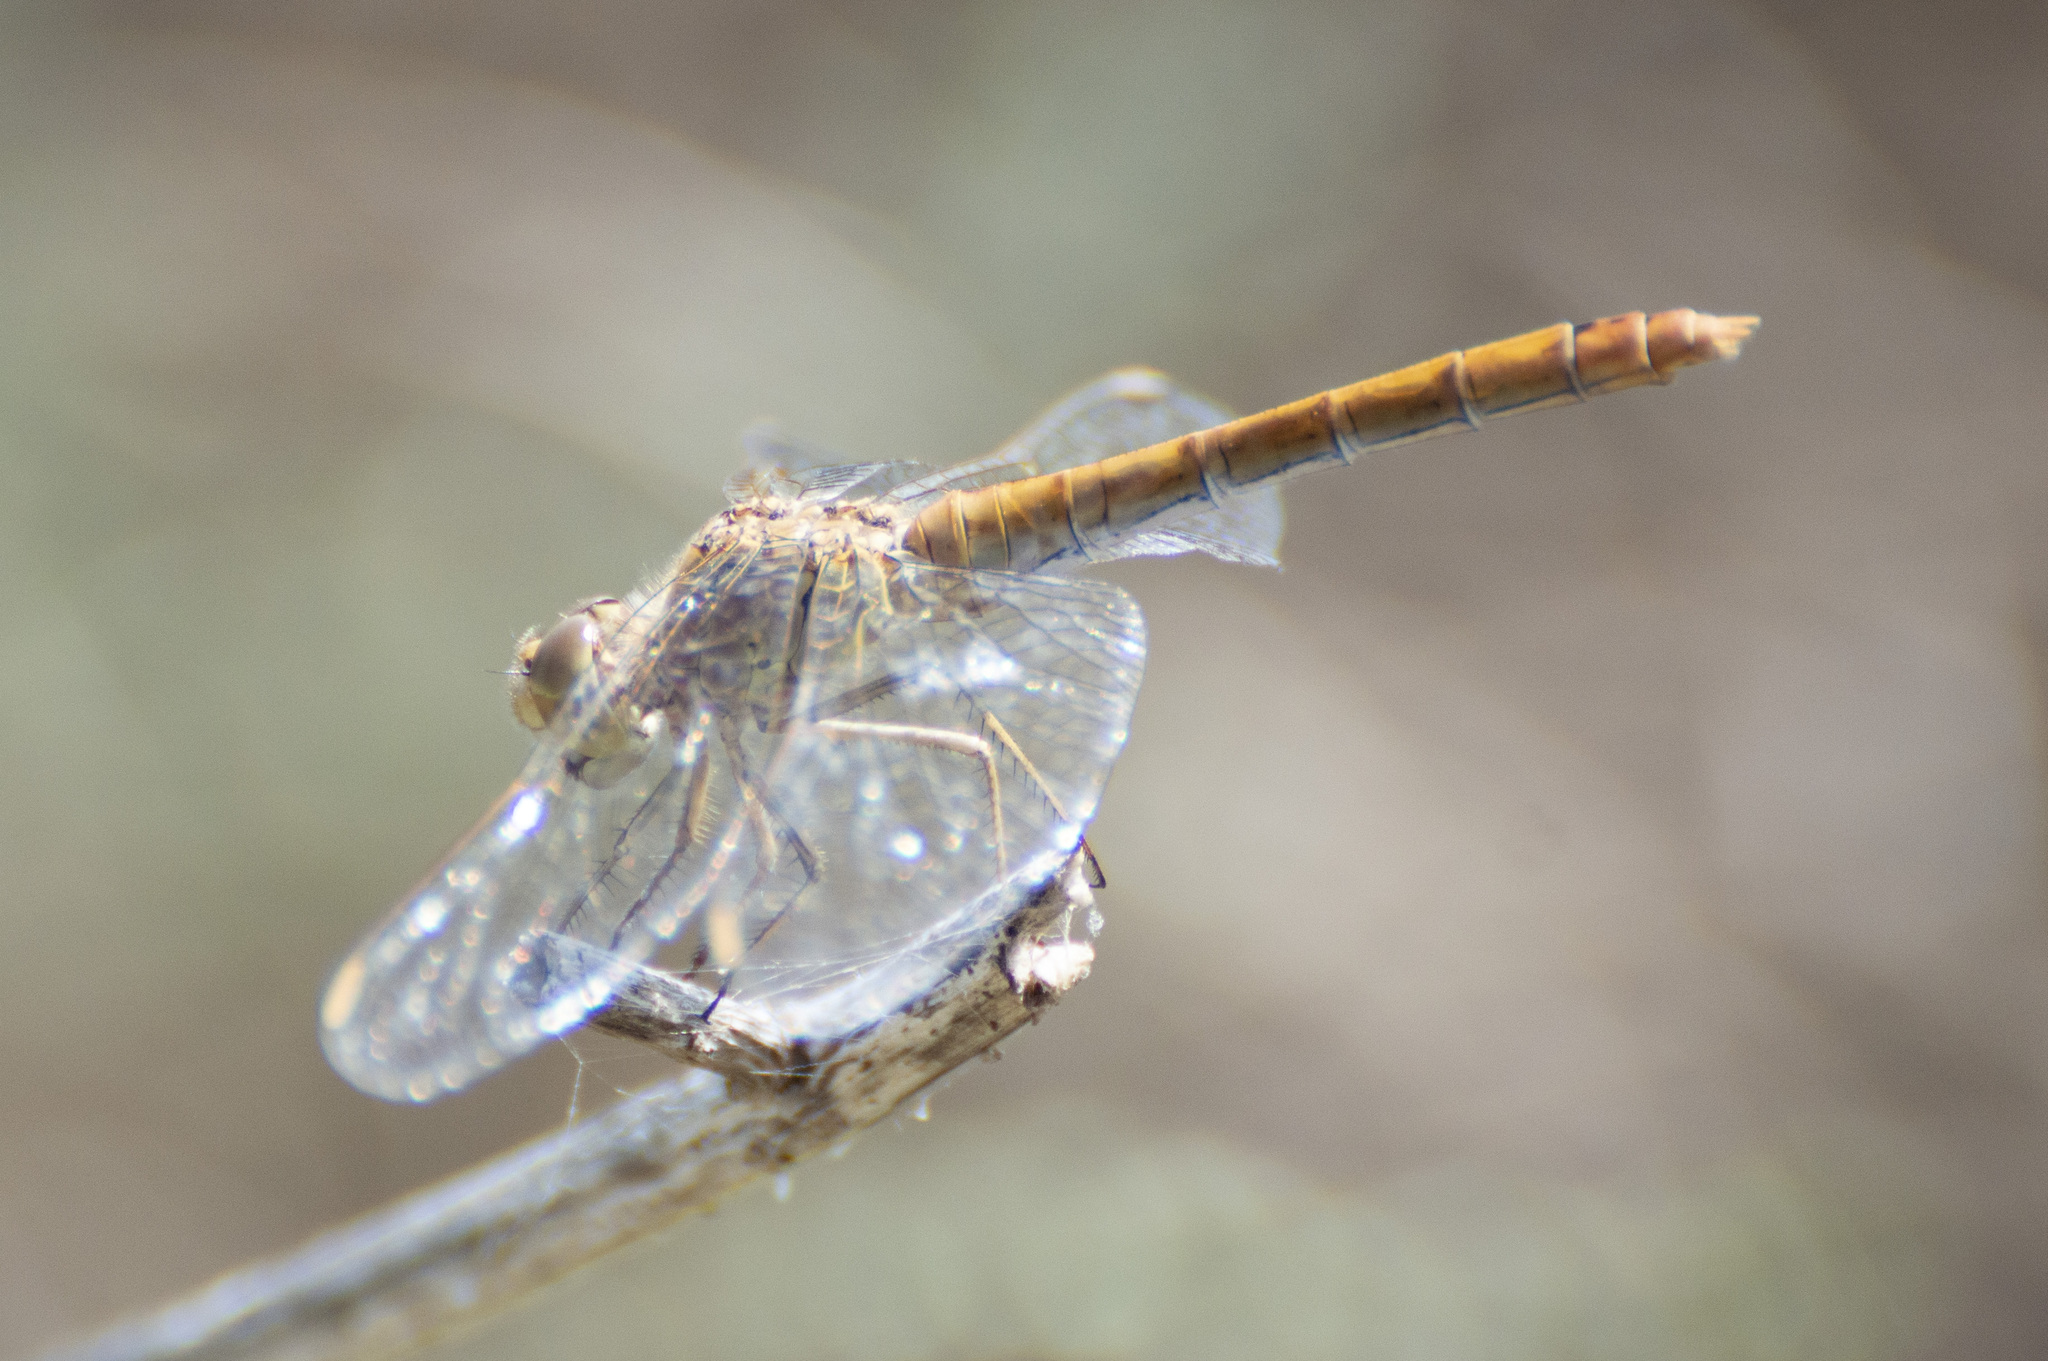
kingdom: Animalia
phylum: Arthropoda
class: Insecta
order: Odonata
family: Libellulidae
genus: Sympetrum
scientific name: Sympetrum meridionale
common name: Southern darter
